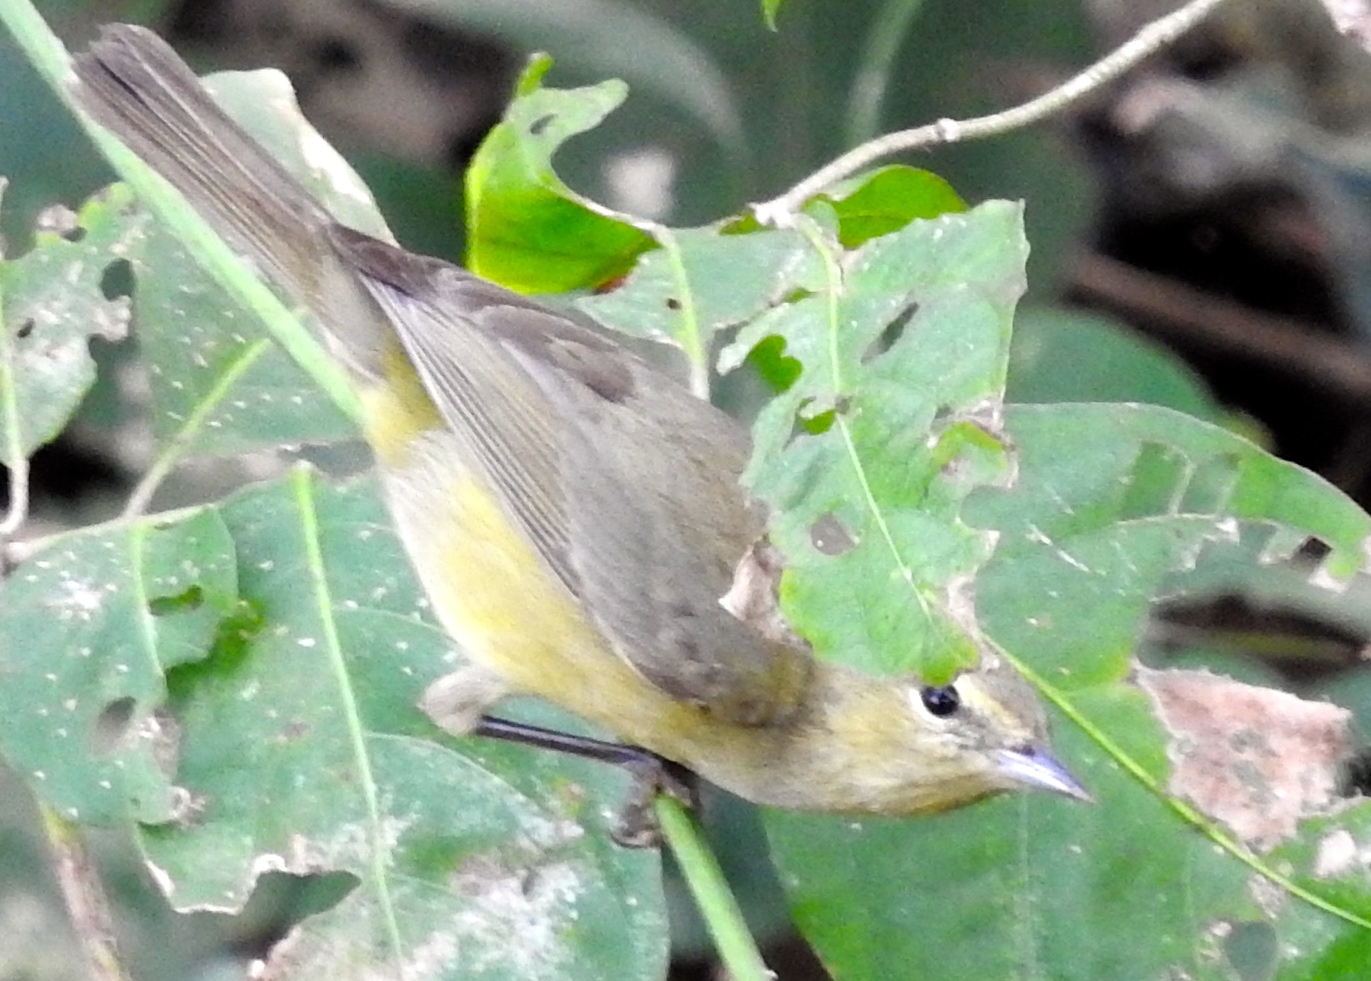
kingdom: Animalia
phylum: Chordata
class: Aves
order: Passeriformes
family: Parulidae
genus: Leiothlypis
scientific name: Leiothlypis celata
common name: Orange-crowned warbler
